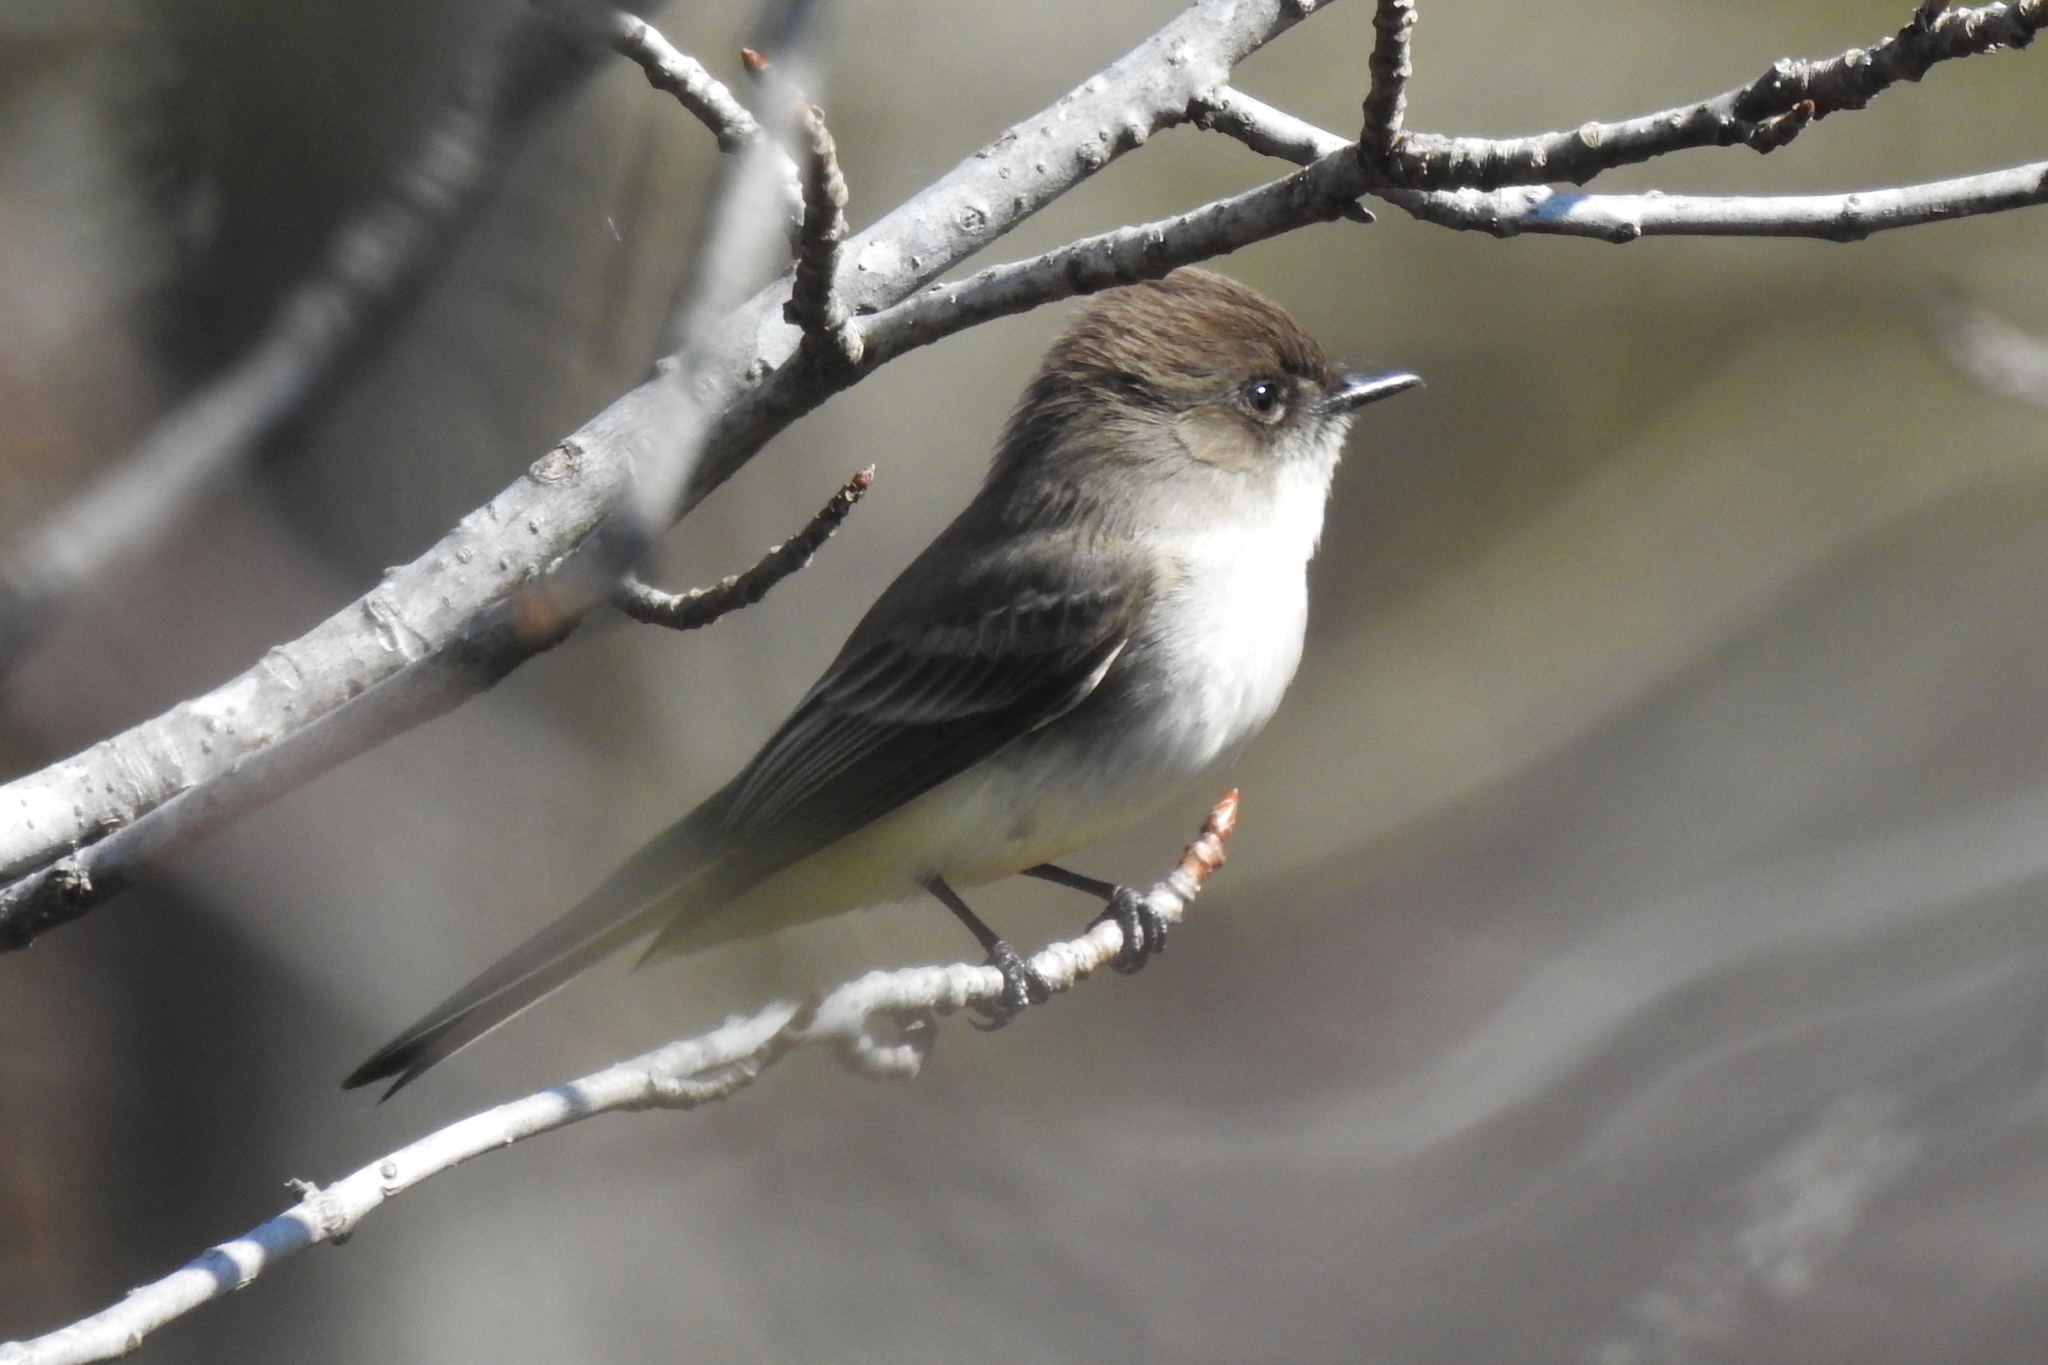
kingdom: Animalia
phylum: Chordata
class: Aves
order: Passeriformes
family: Tyrannidae
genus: Sayornis
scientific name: Sayornis phoebe
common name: Eastern phoebe
